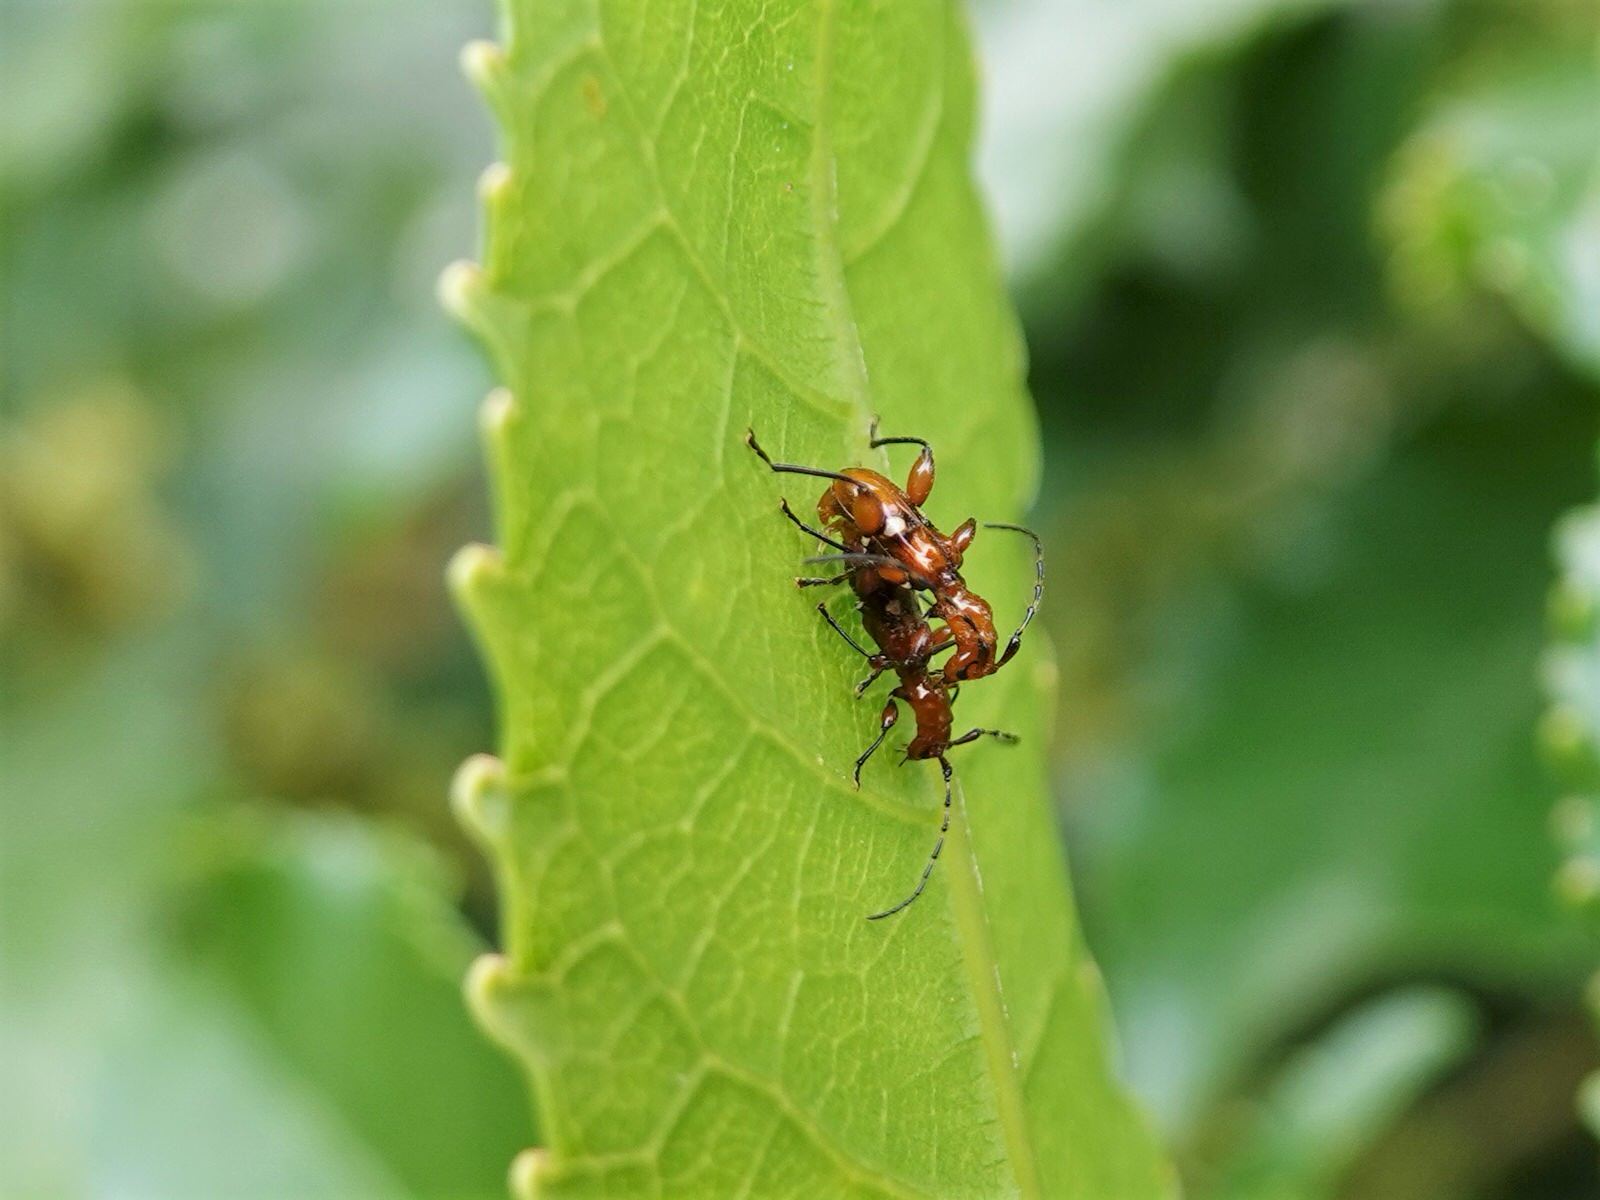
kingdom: Animalia
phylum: Arthropoda
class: Insecta
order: Coleoptera
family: Cerambycidae
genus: Zorion
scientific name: Zorion batesi
